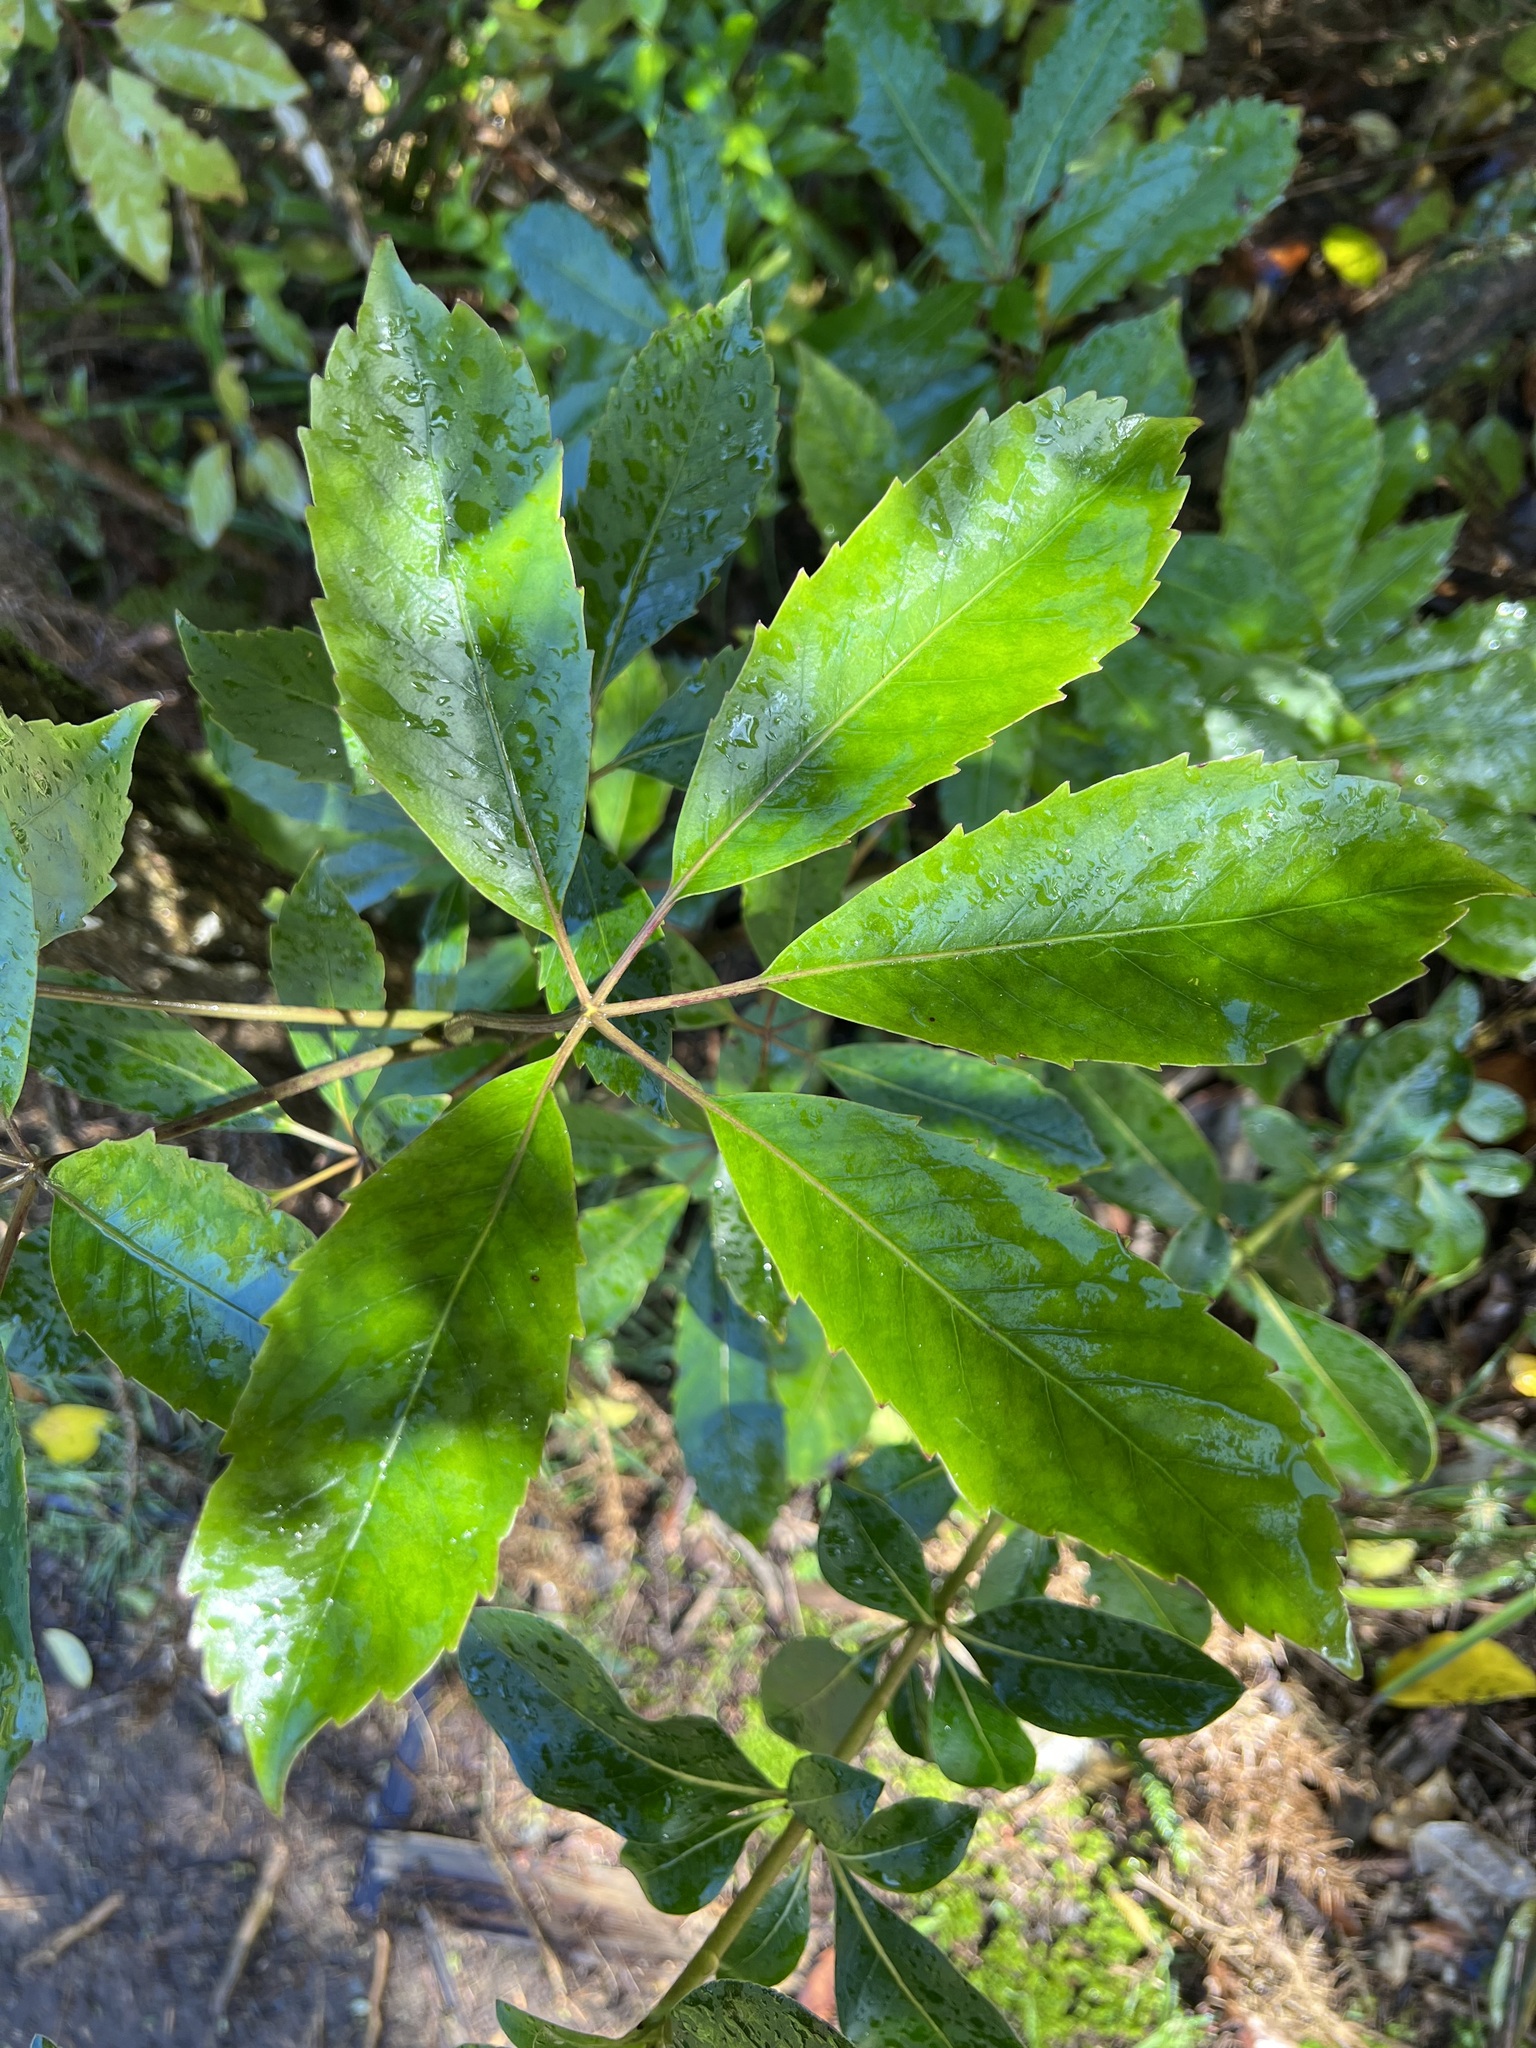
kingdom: Plantae
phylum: Tracheophyta
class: Magnoliopsida
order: Apiales
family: Araliaceae
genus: Neopanax
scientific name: Neopanax arboreus
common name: Five-fingers
